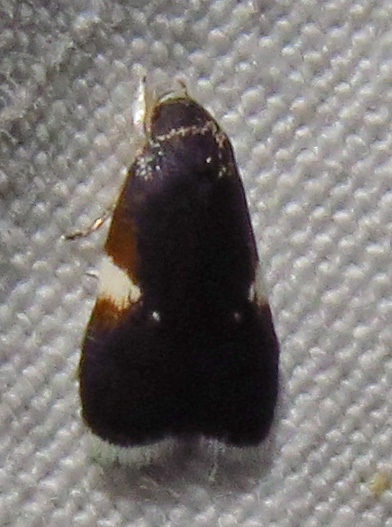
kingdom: Animalia
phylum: Arthropoda
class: Insecta
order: Lepidoptera
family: Depressariidae
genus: Menesta
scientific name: Menesta melanella
